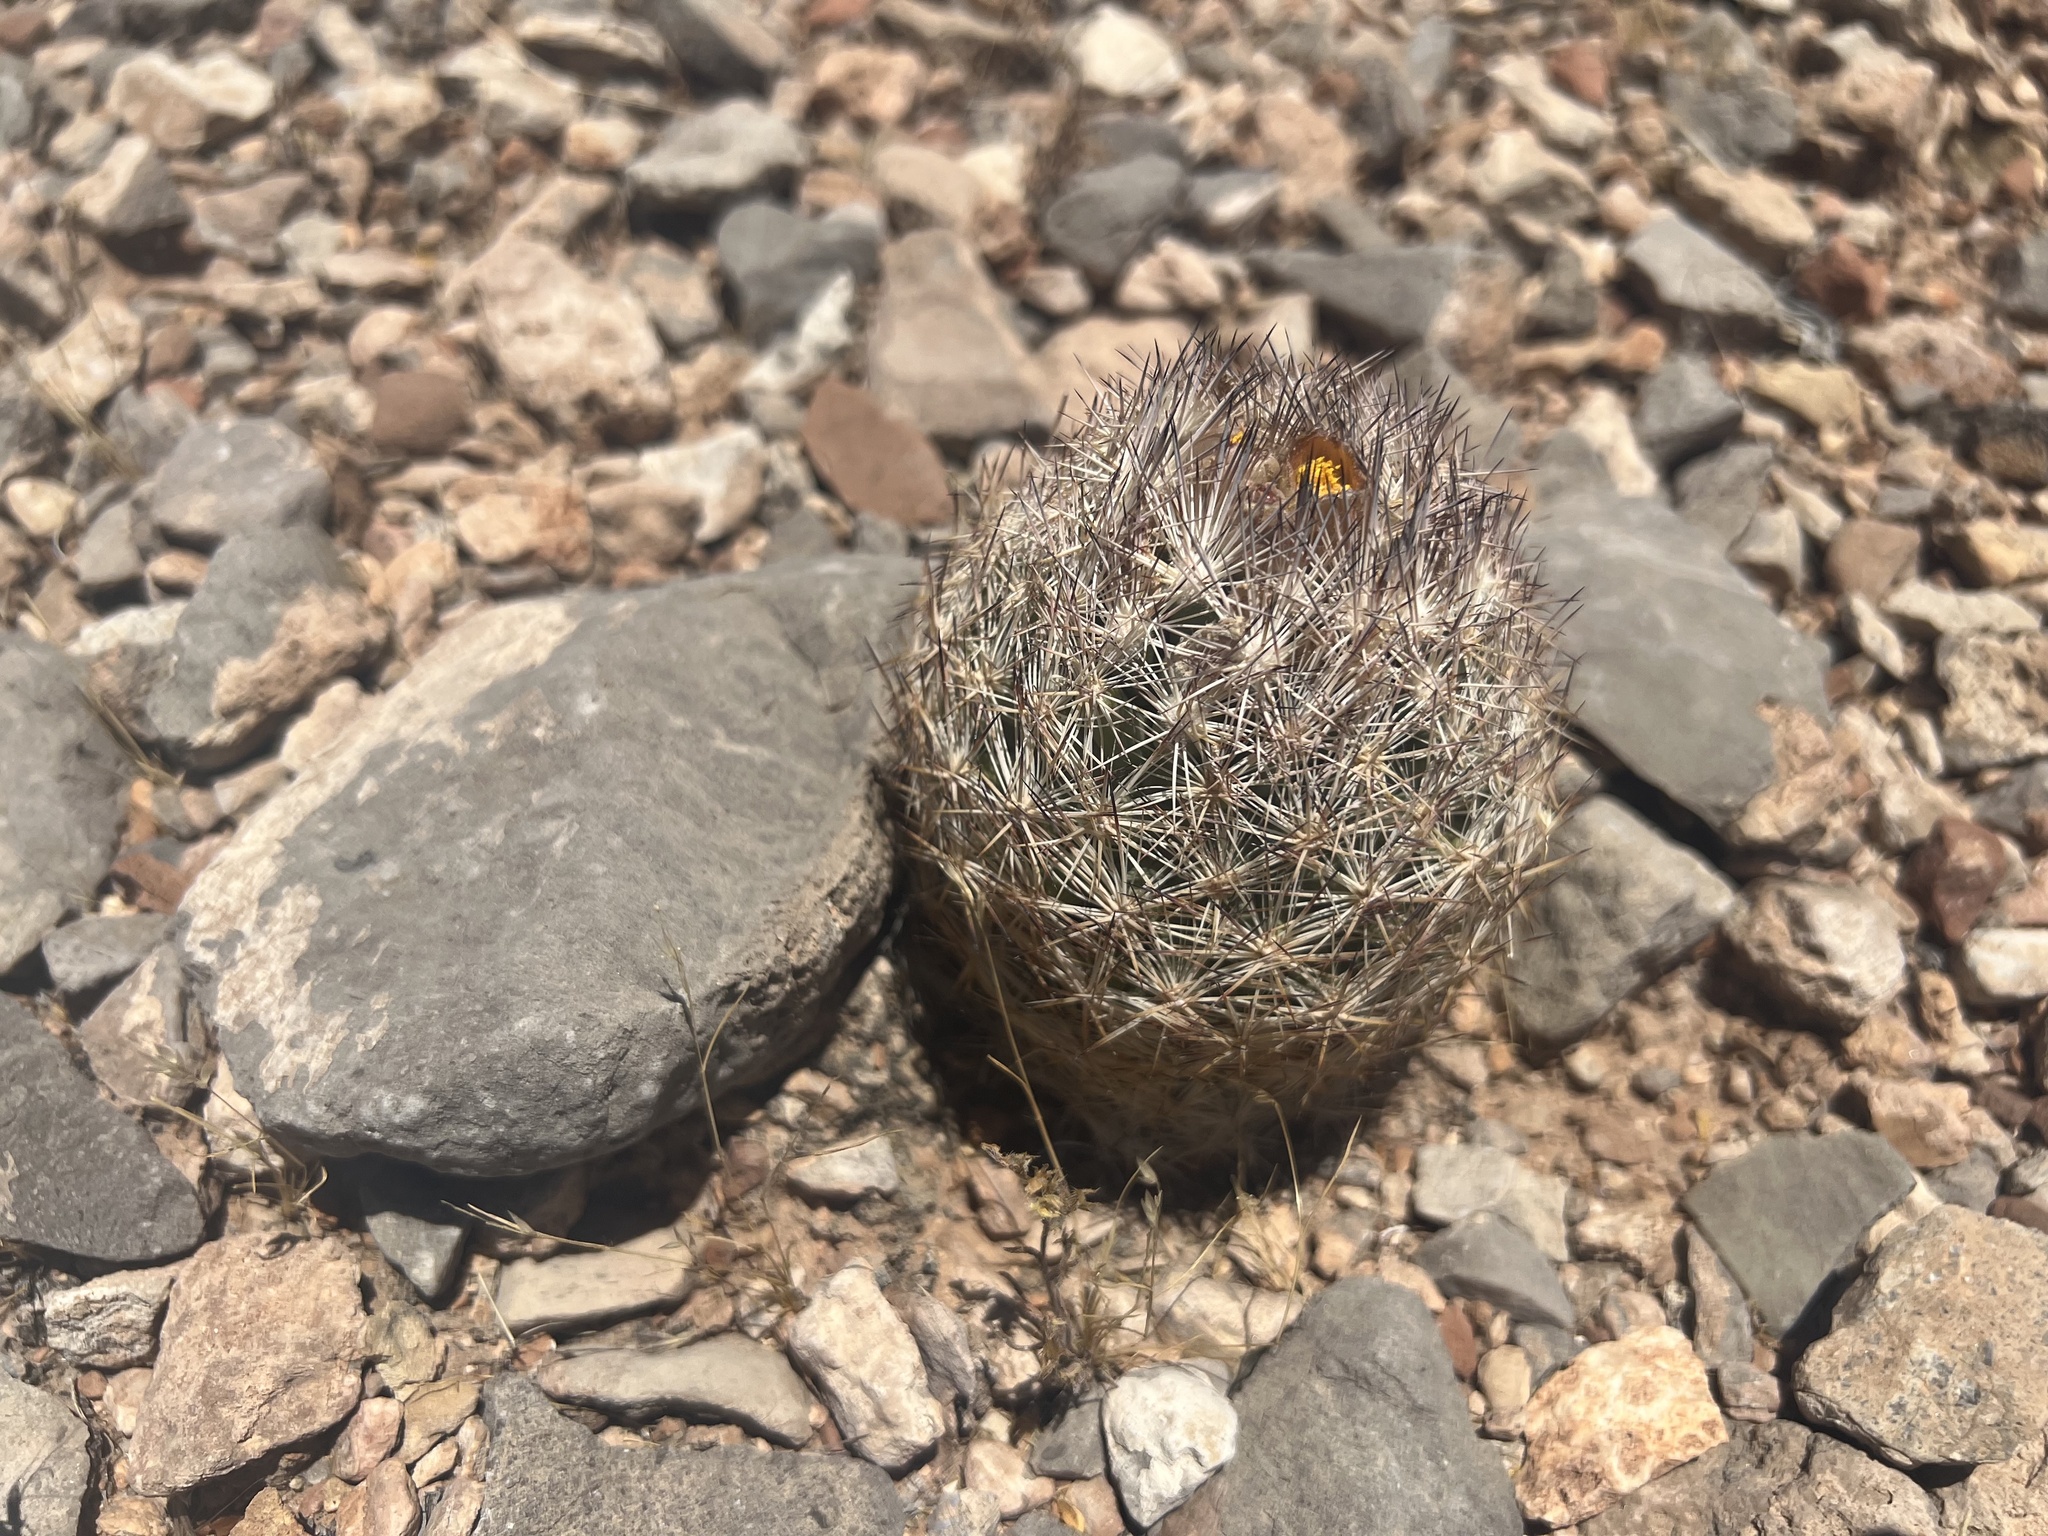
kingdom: Plantae
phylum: Tracheophyta
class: Magnoliopsida
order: Caryophyllales
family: Cactaceae
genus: Pelecyphora
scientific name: Pelecyphora dasyacantha
